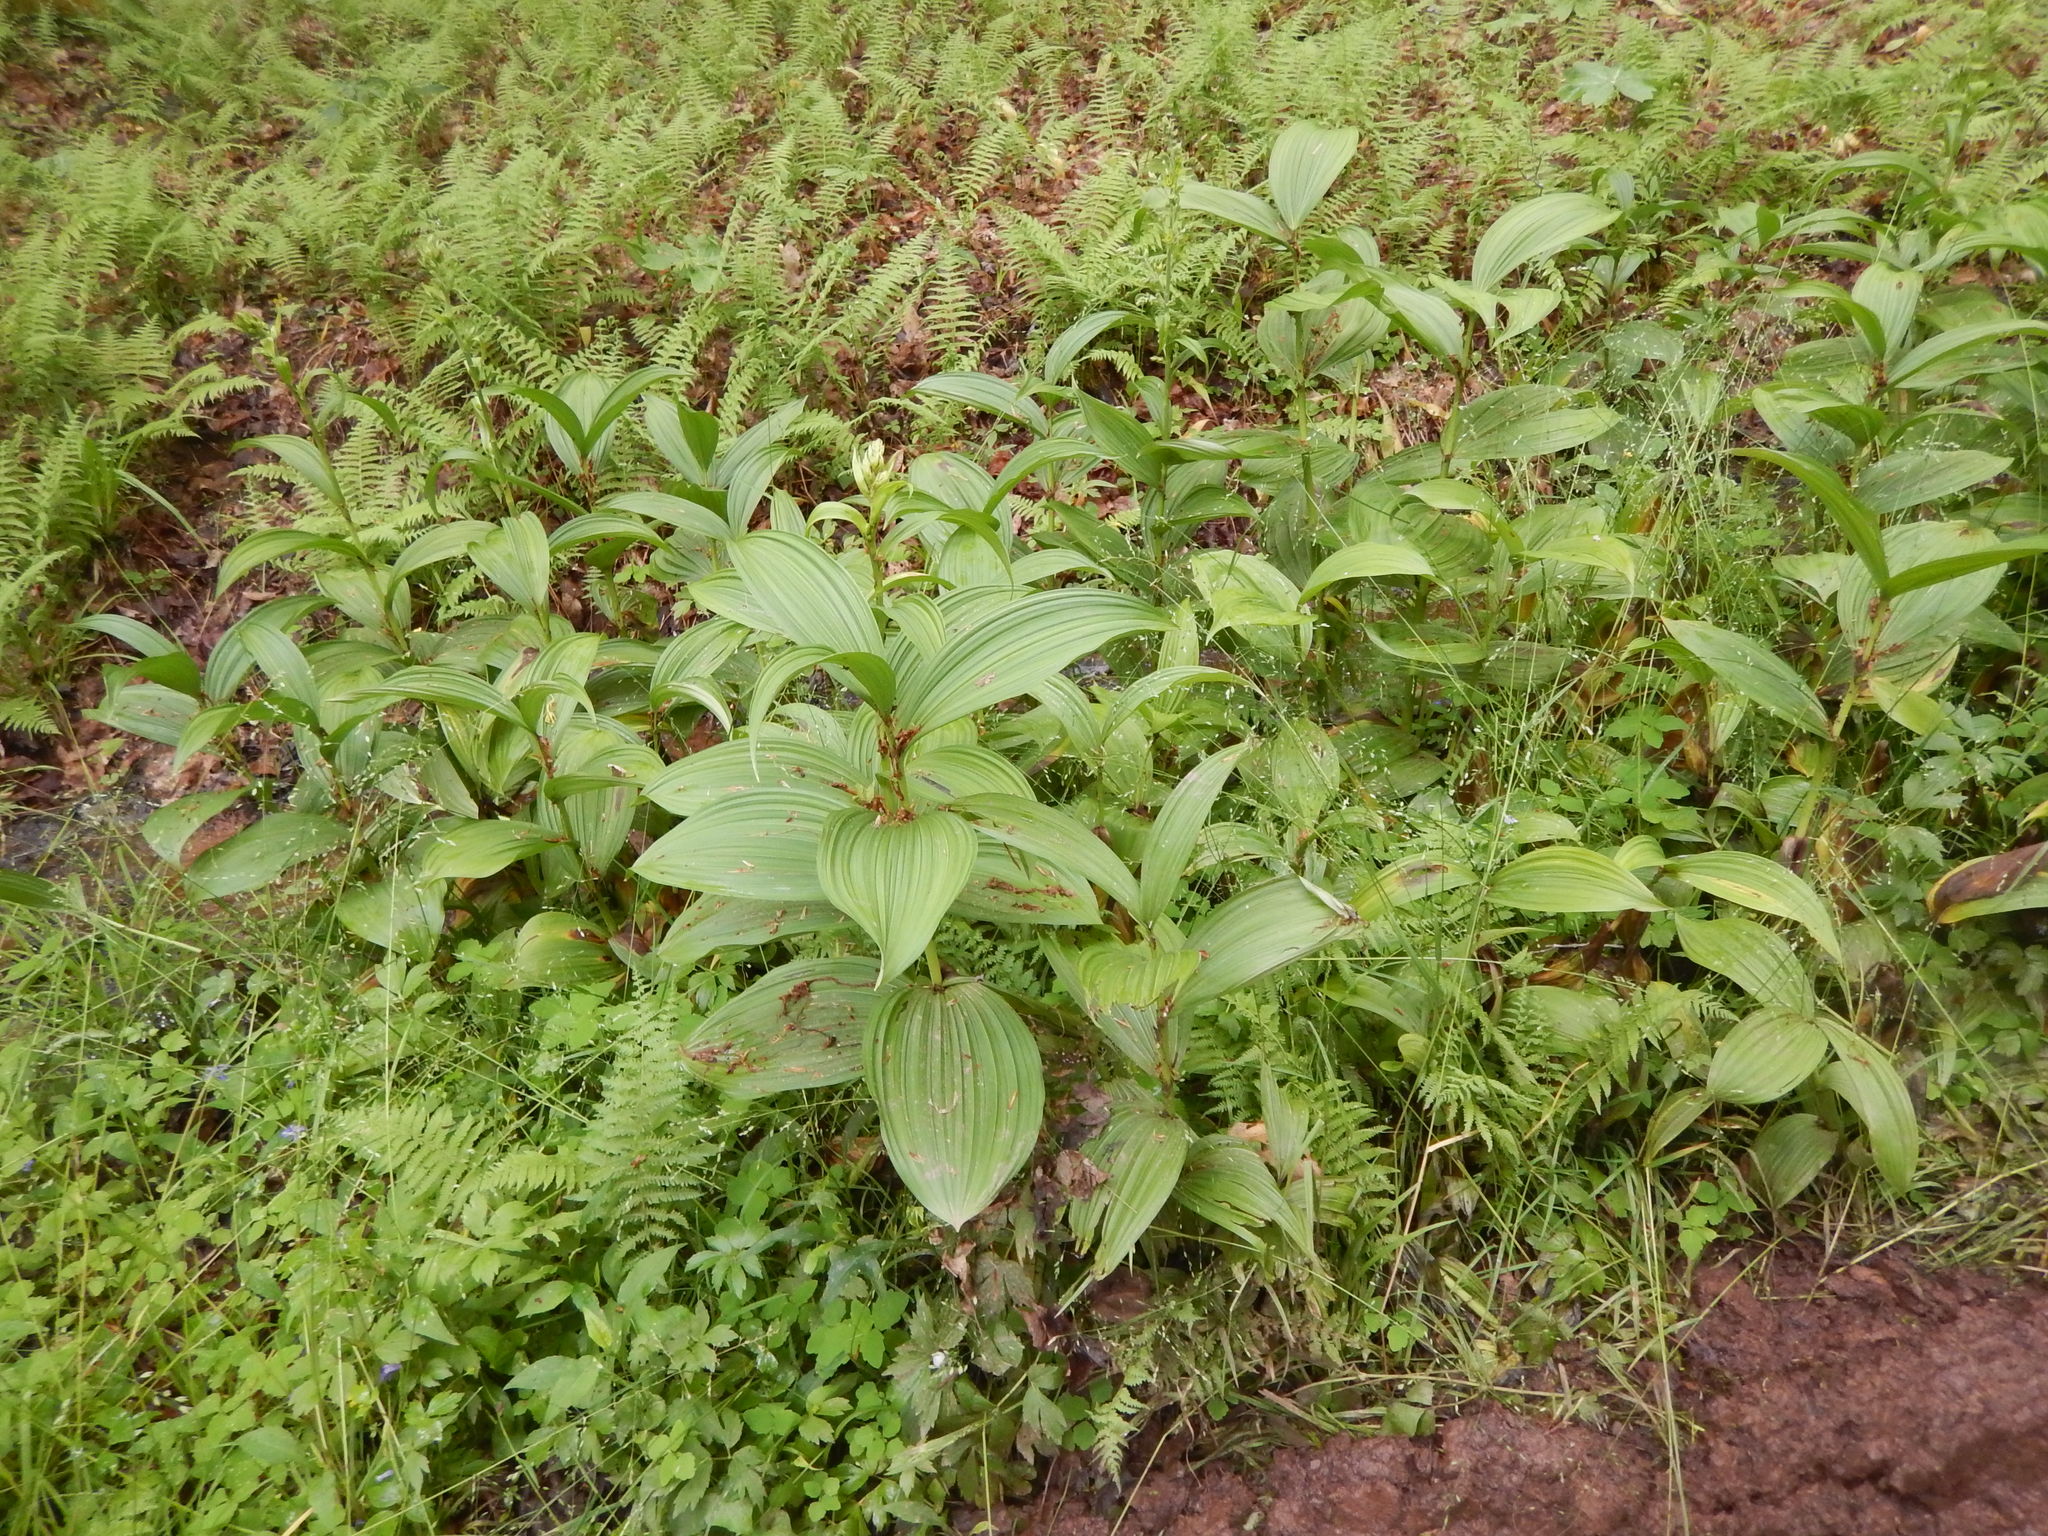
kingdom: Plantae
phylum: Tracheophyta
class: Liliopsida
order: Liliales
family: Melanthiaceae
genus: Veratrum
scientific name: Veratrum viride
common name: American false hellebore
